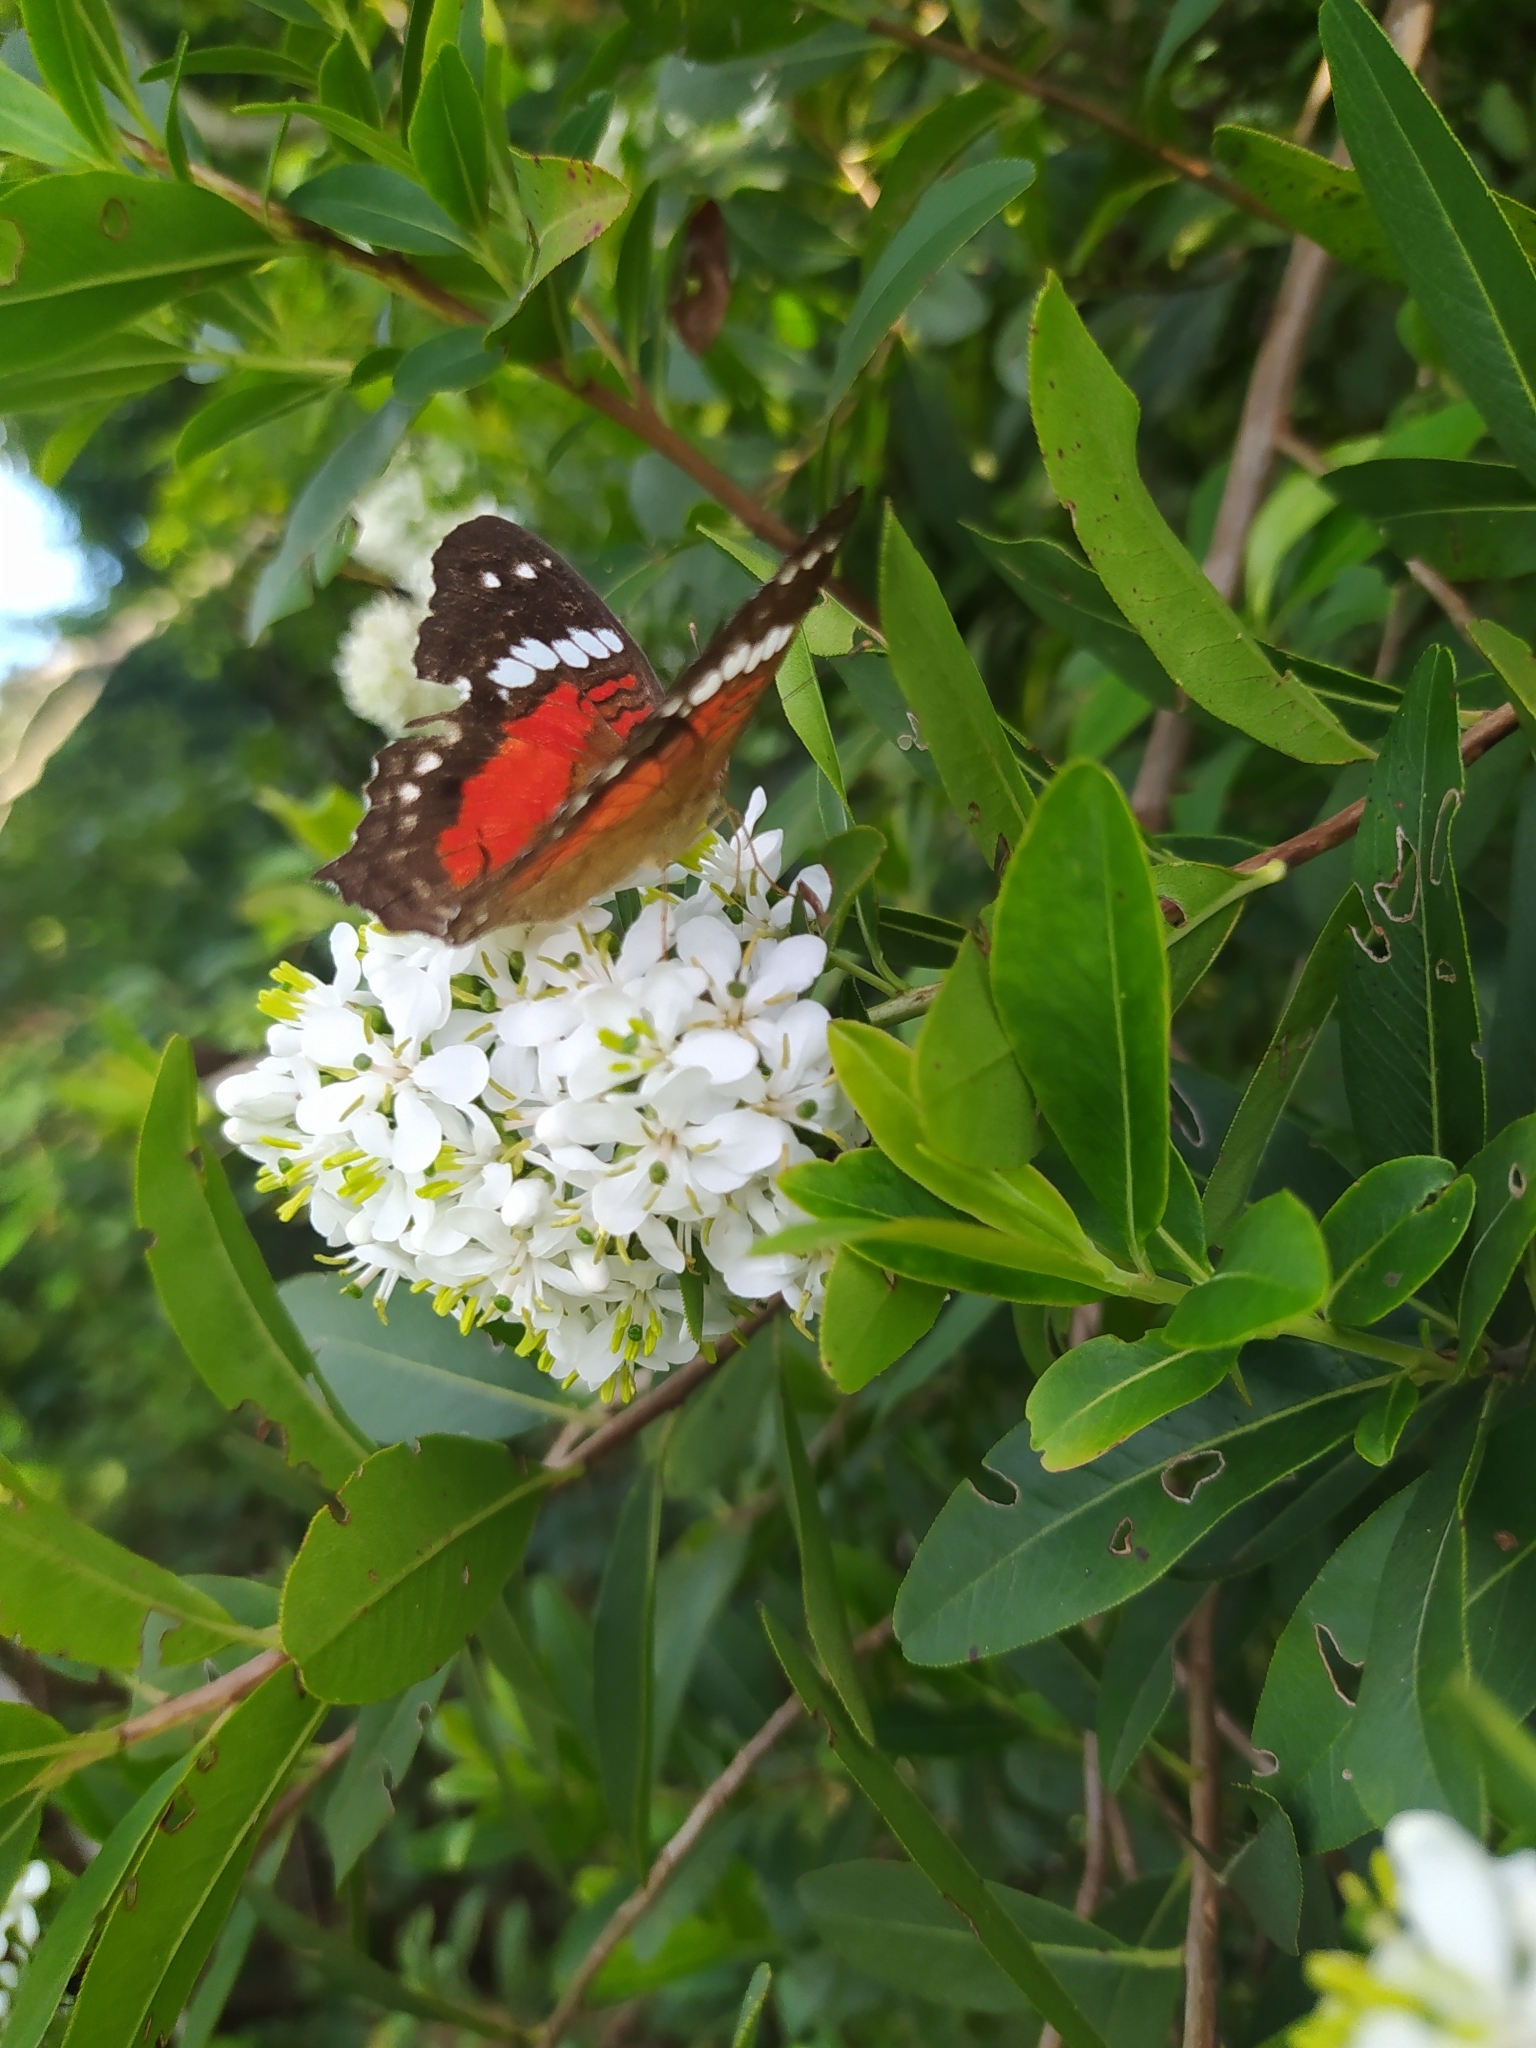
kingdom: Animalia
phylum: Arthropoda
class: Insecta
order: Lepidoptera
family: Nymphalidae
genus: Anartia
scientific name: Anartia amathea
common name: Red peacock
